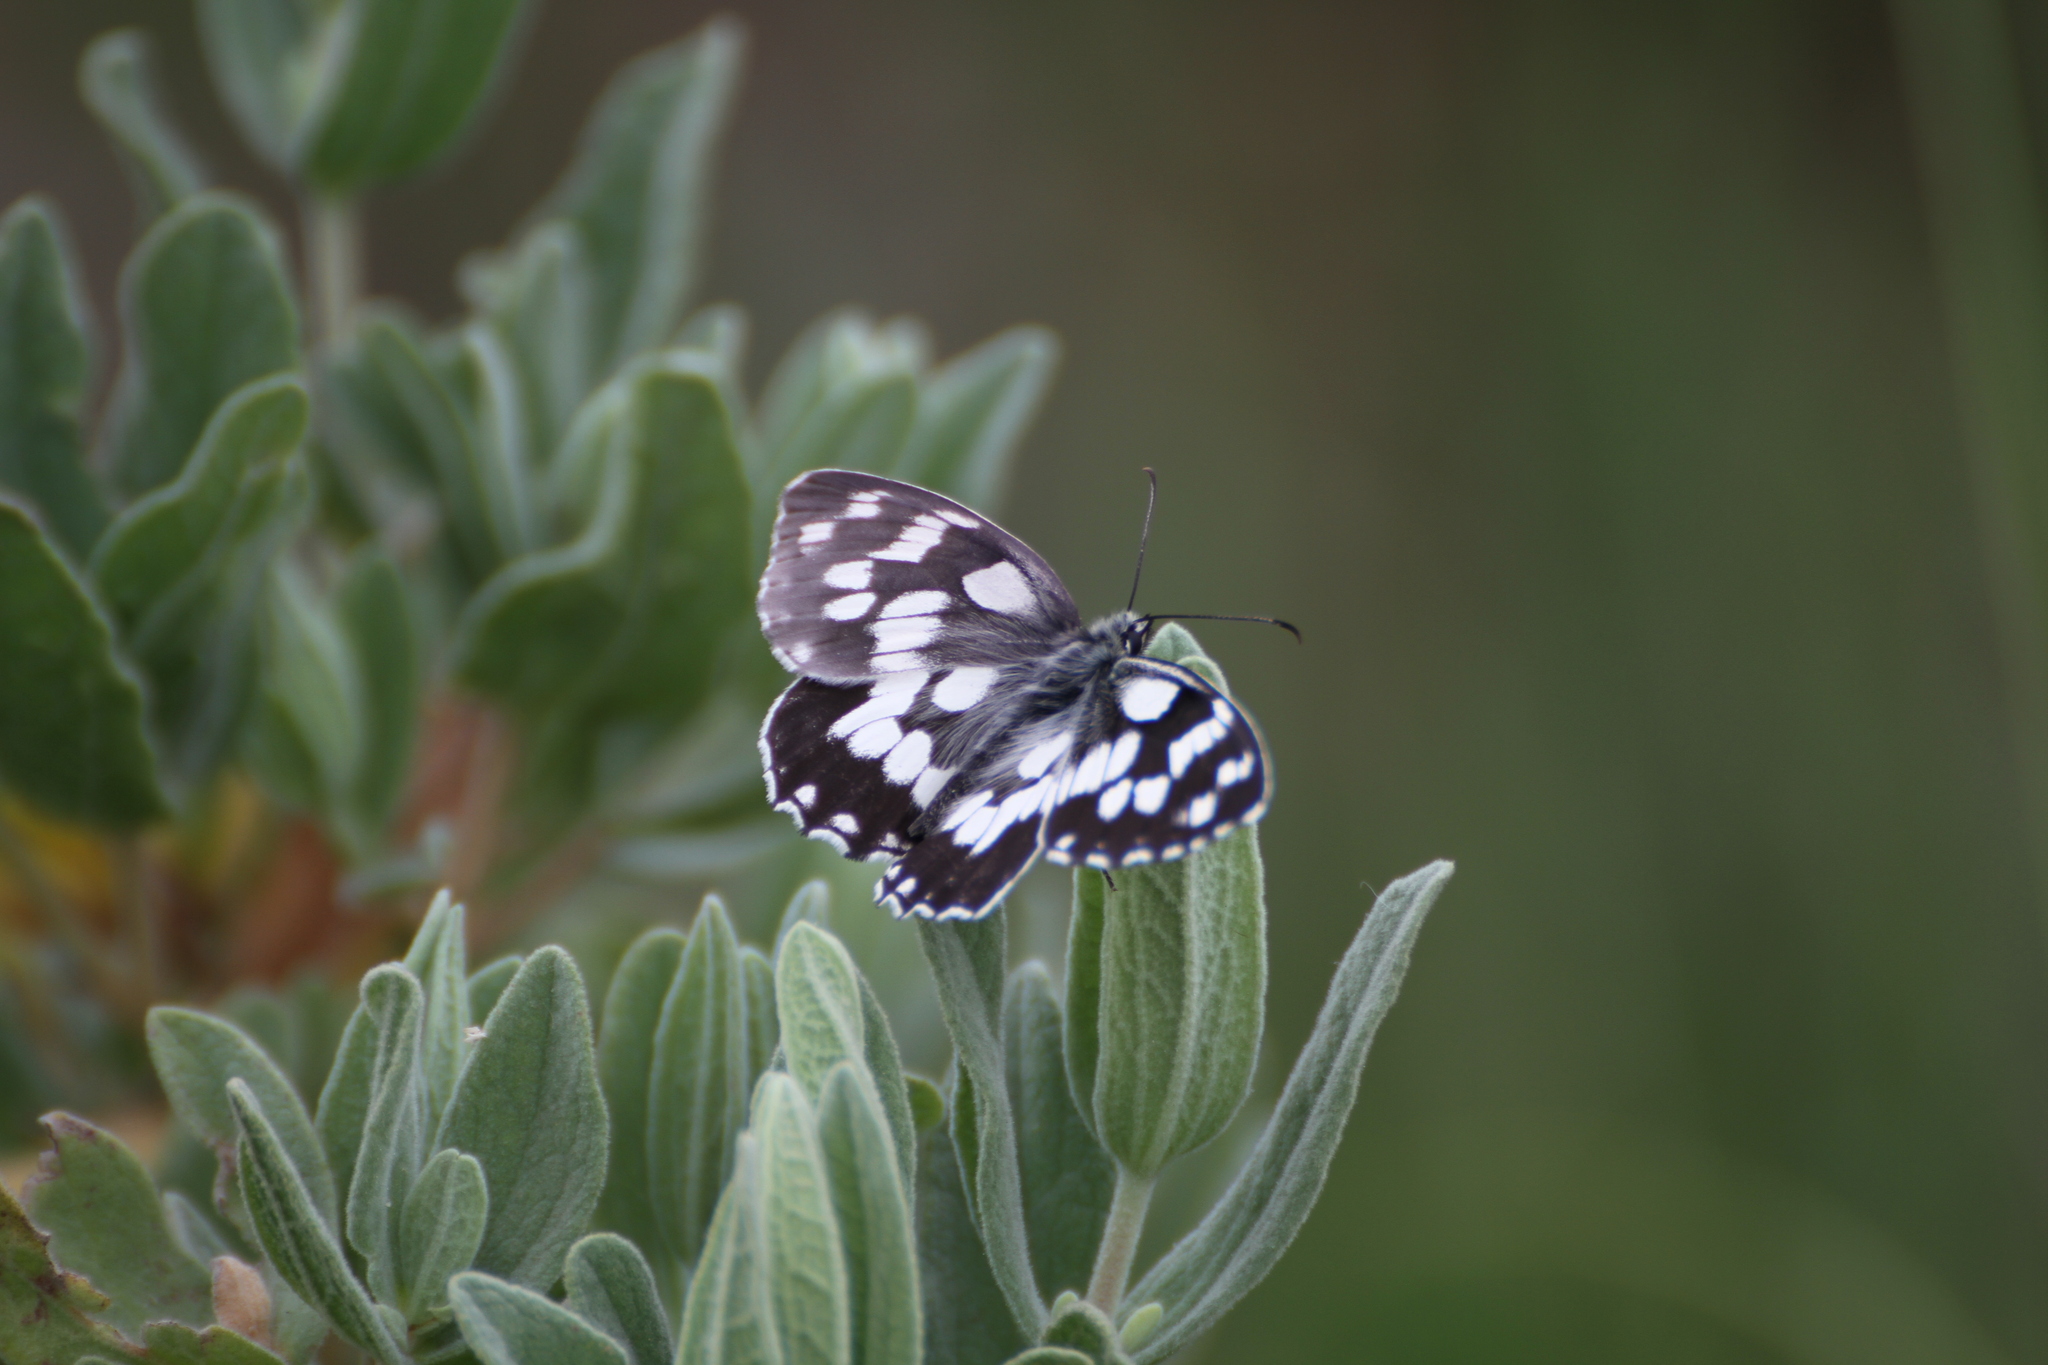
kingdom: Animalia
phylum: Arthropoda
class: Insecta
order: Lepidoptera
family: Nymphalidae
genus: Melanargia
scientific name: Melanargia galathea
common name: Marbled white
